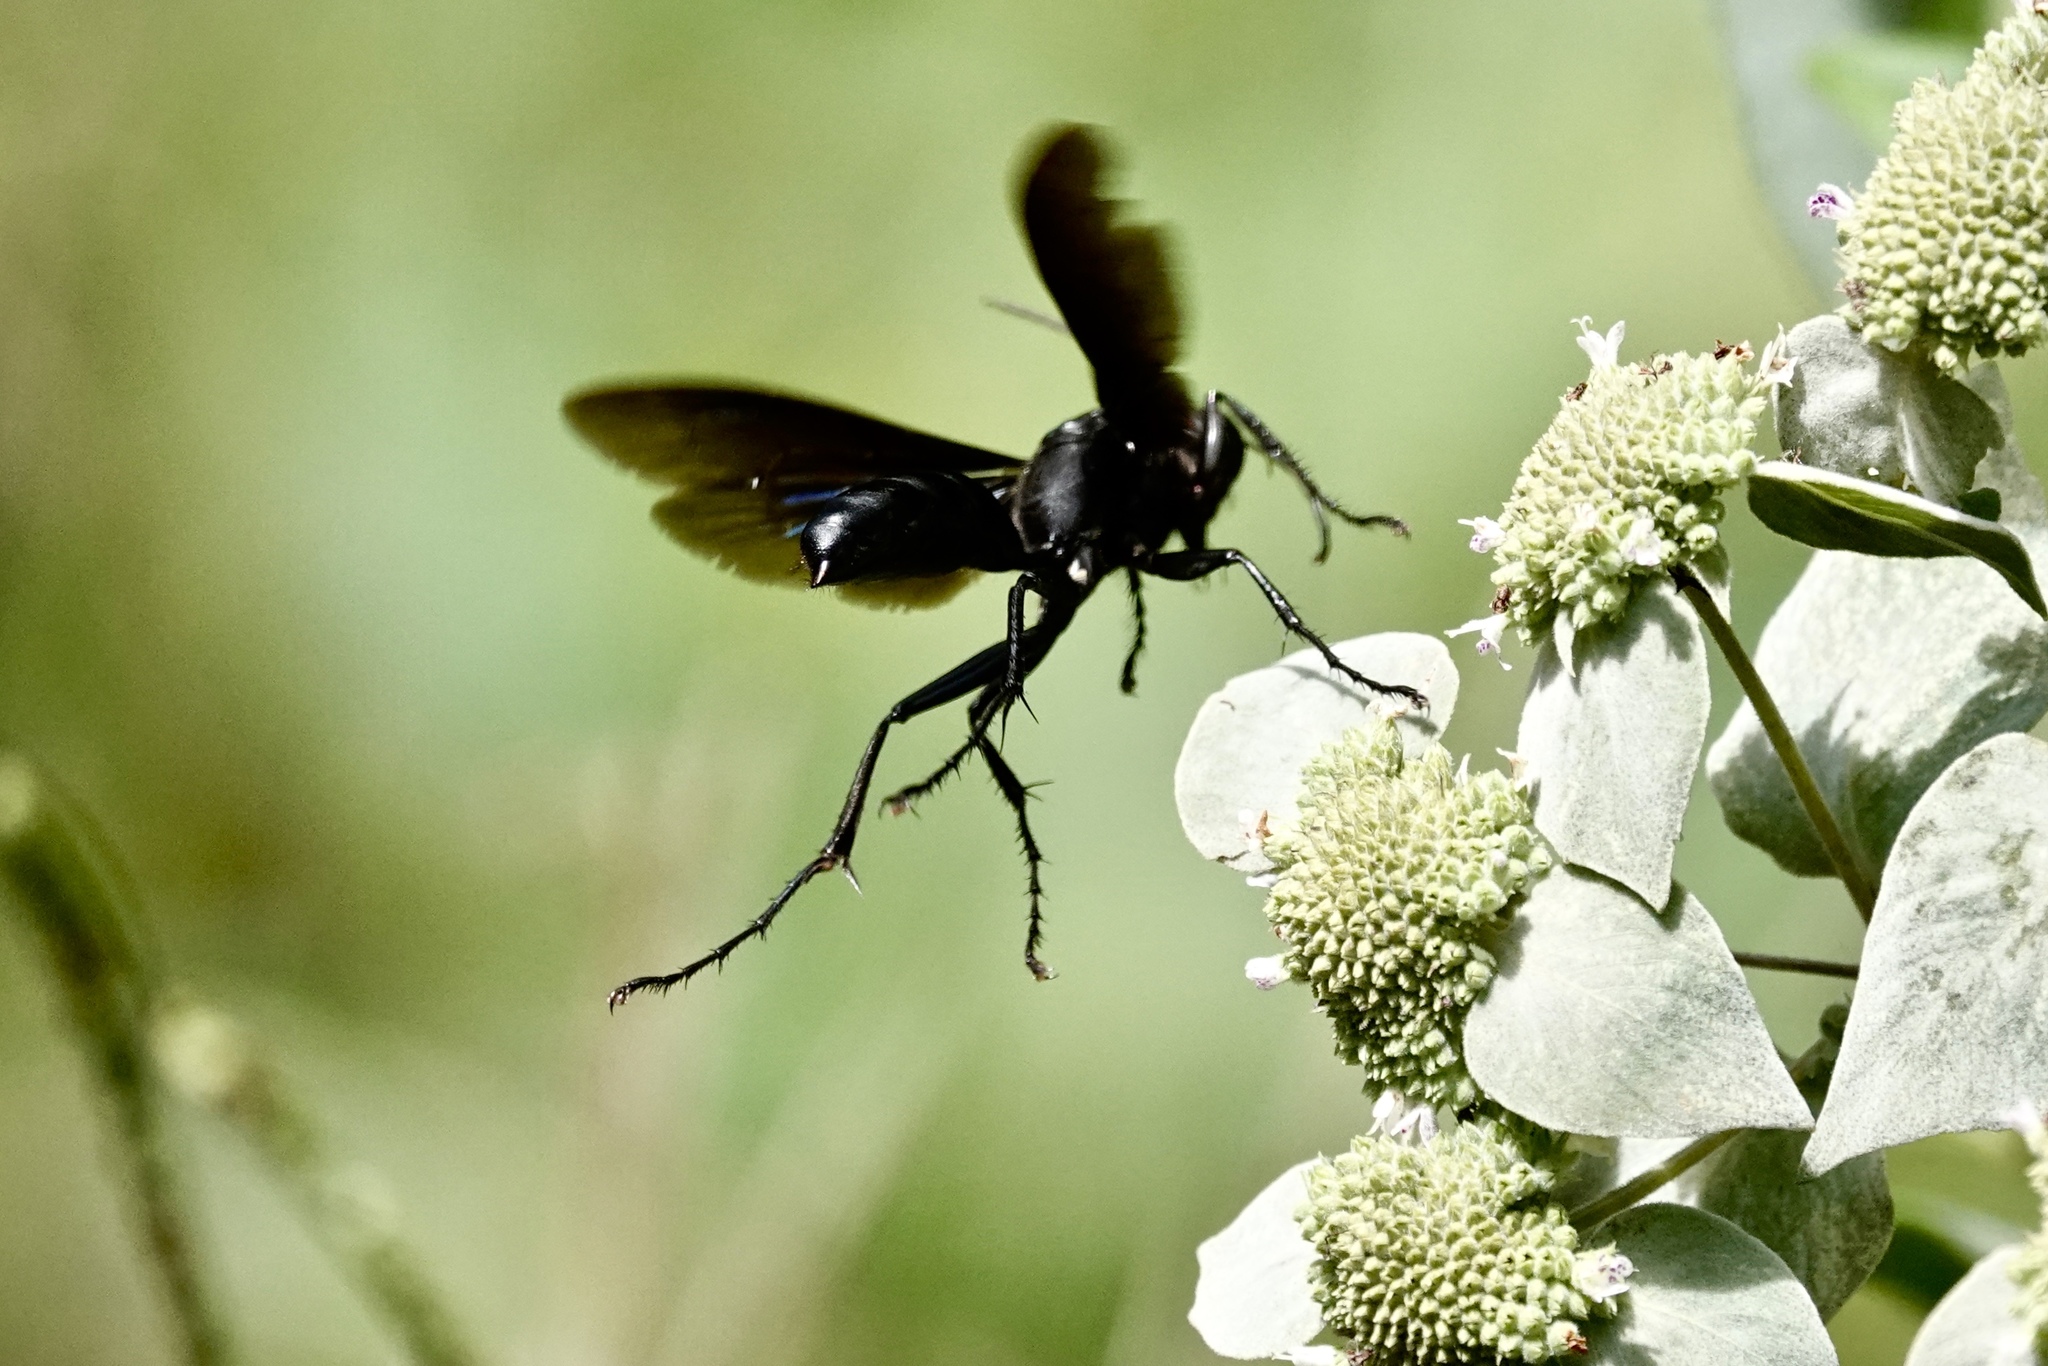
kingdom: Animalia
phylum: Arthropoda
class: Insecta
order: Hymenoptera
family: Sphecidae
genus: Sphex
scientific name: Sphex pensylvanicus
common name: Great black digger wasp
